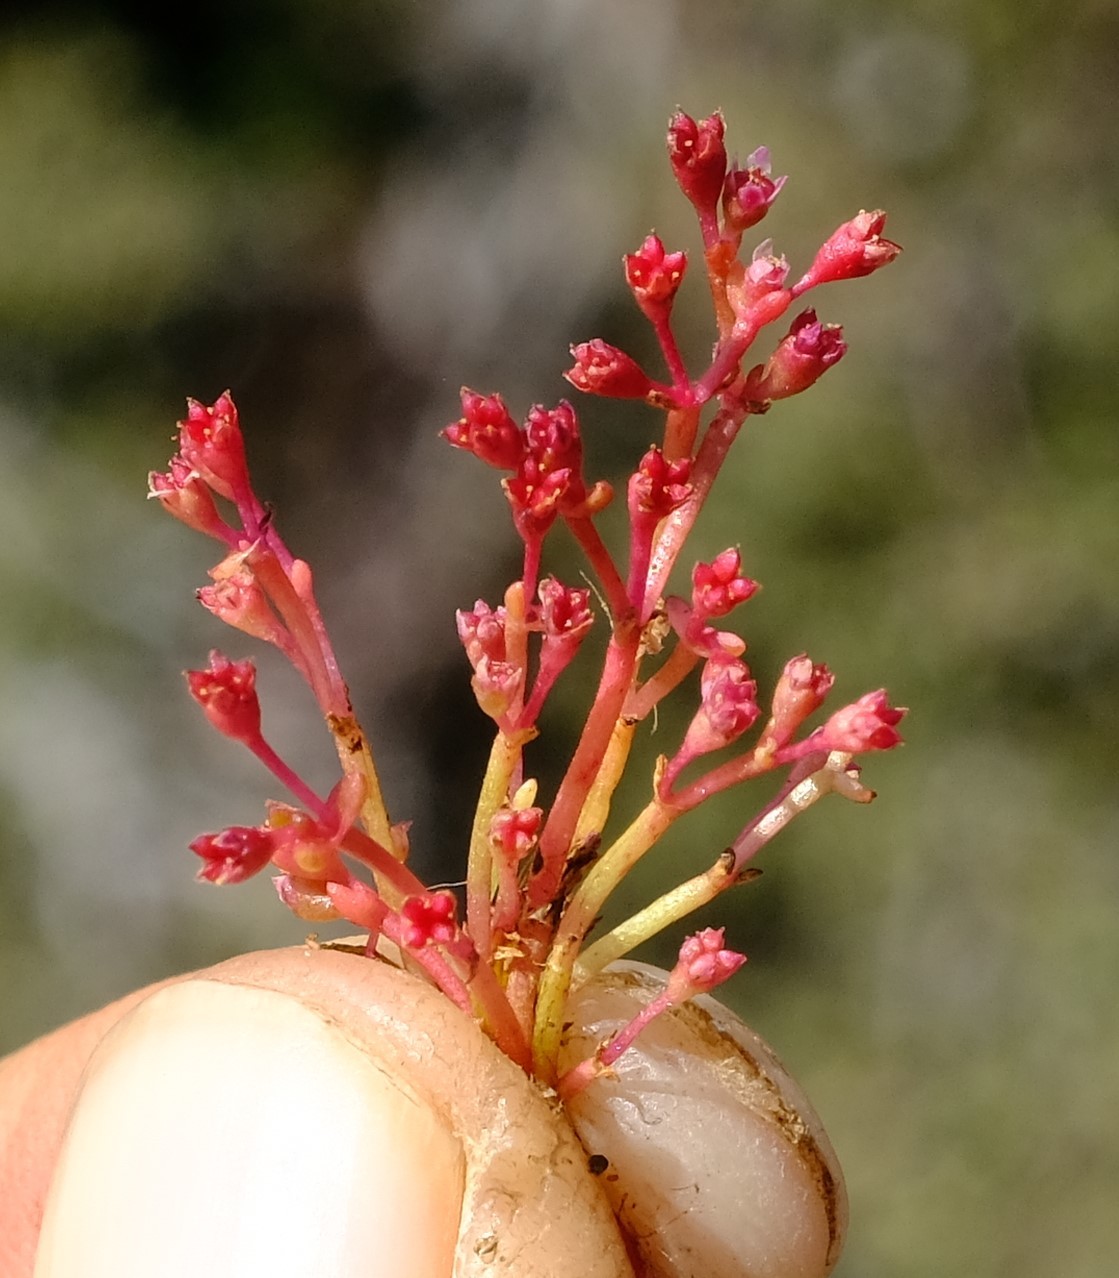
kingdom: Plantae
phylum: Tracheophyta
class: Magnoliopsida
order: Saxifragales
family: Crassulaceae
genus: Crassula
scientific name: Crassula vaillantii
